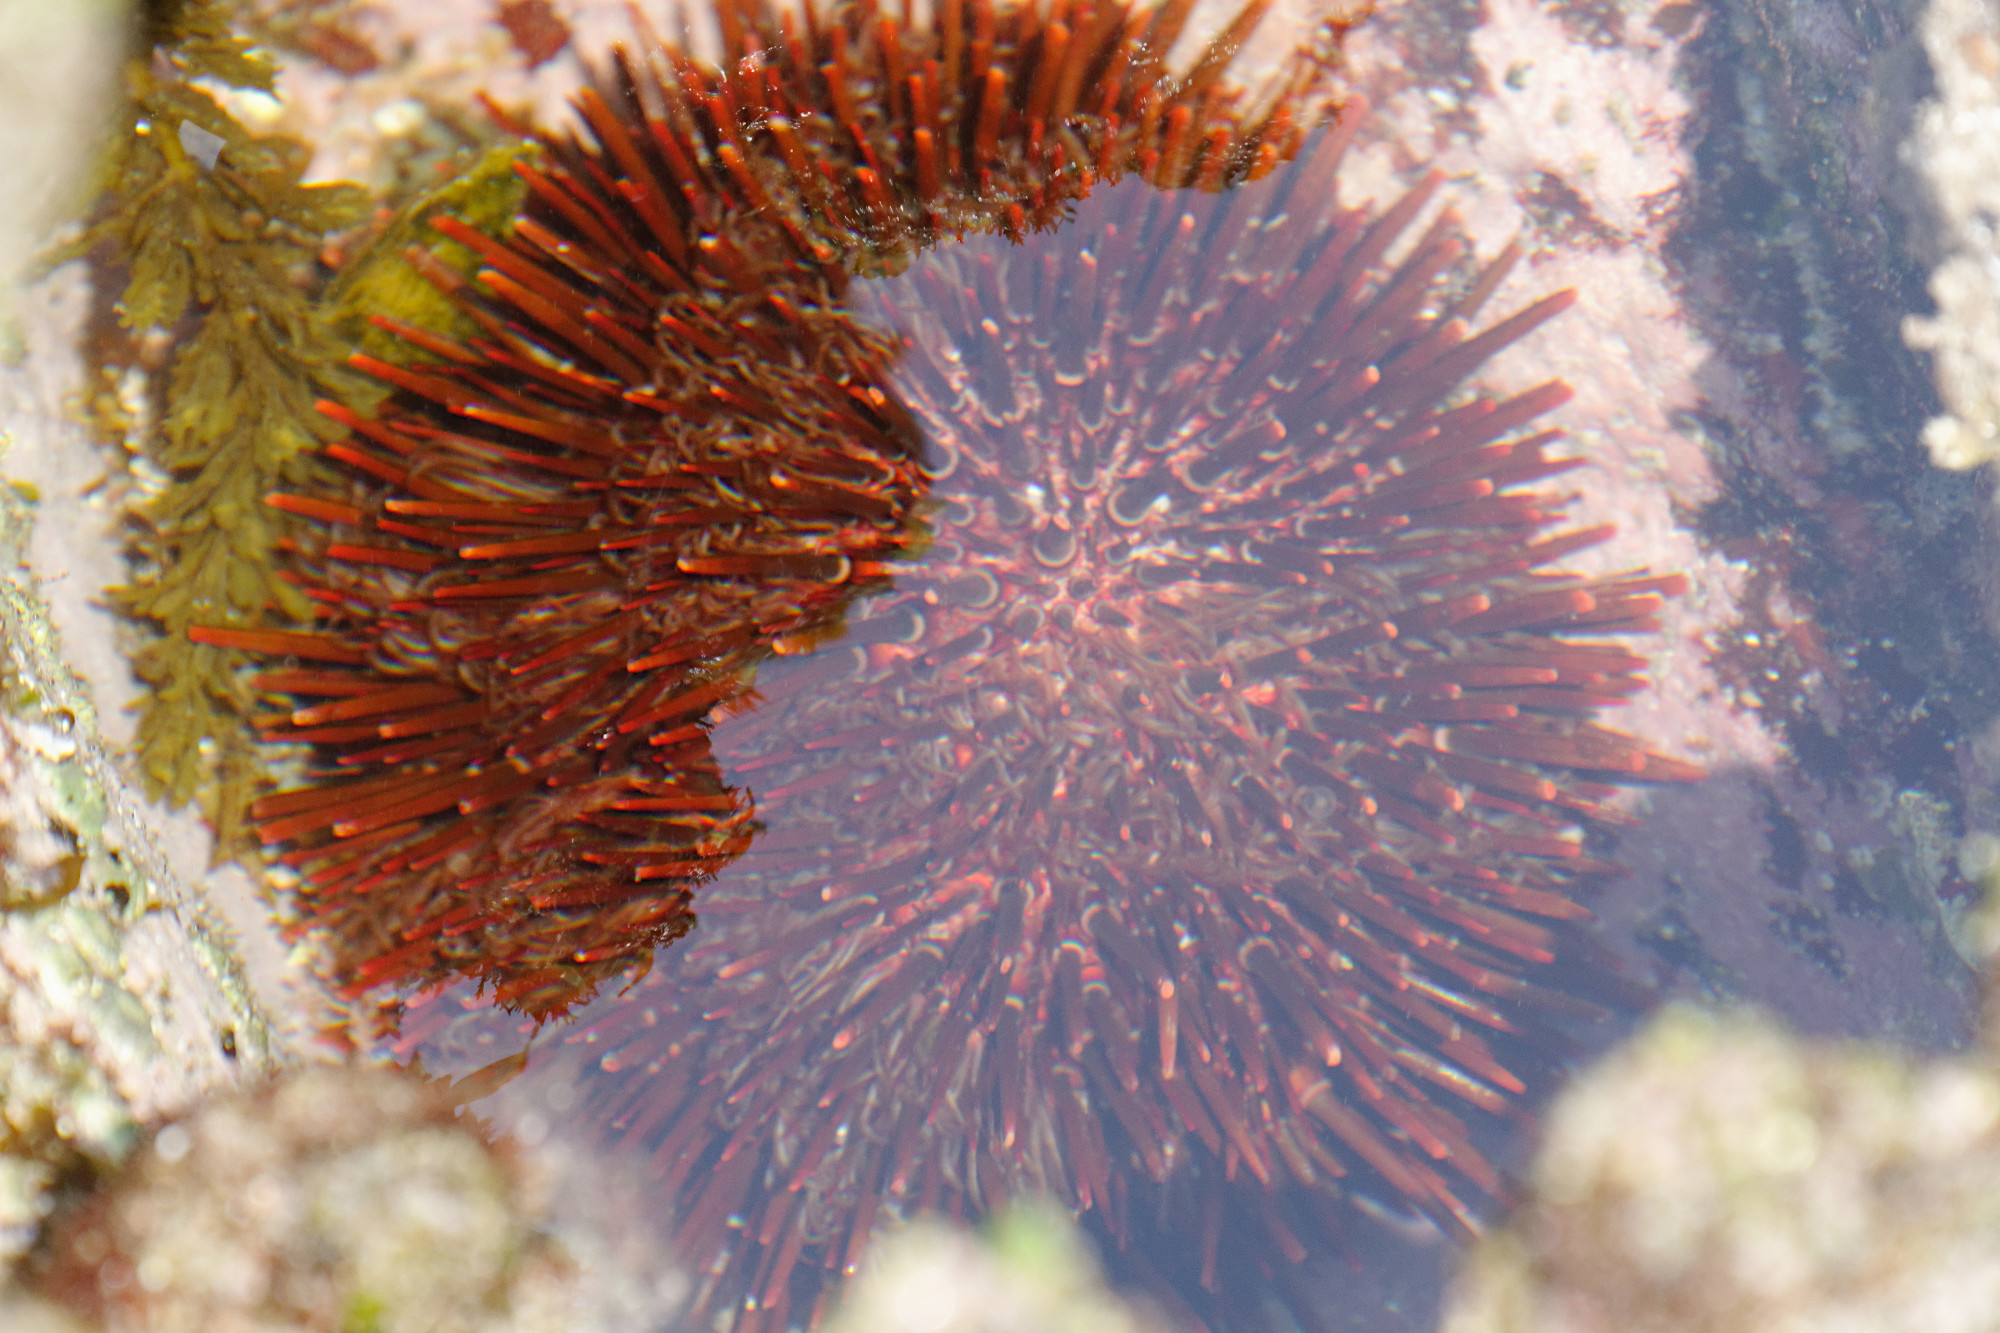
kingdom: Animalia
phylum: Echinodermata
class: Echinoidea
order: Camarodonta
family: Echinometridae
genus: Heliocidaris
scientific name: Heliocidaris tuberculata
